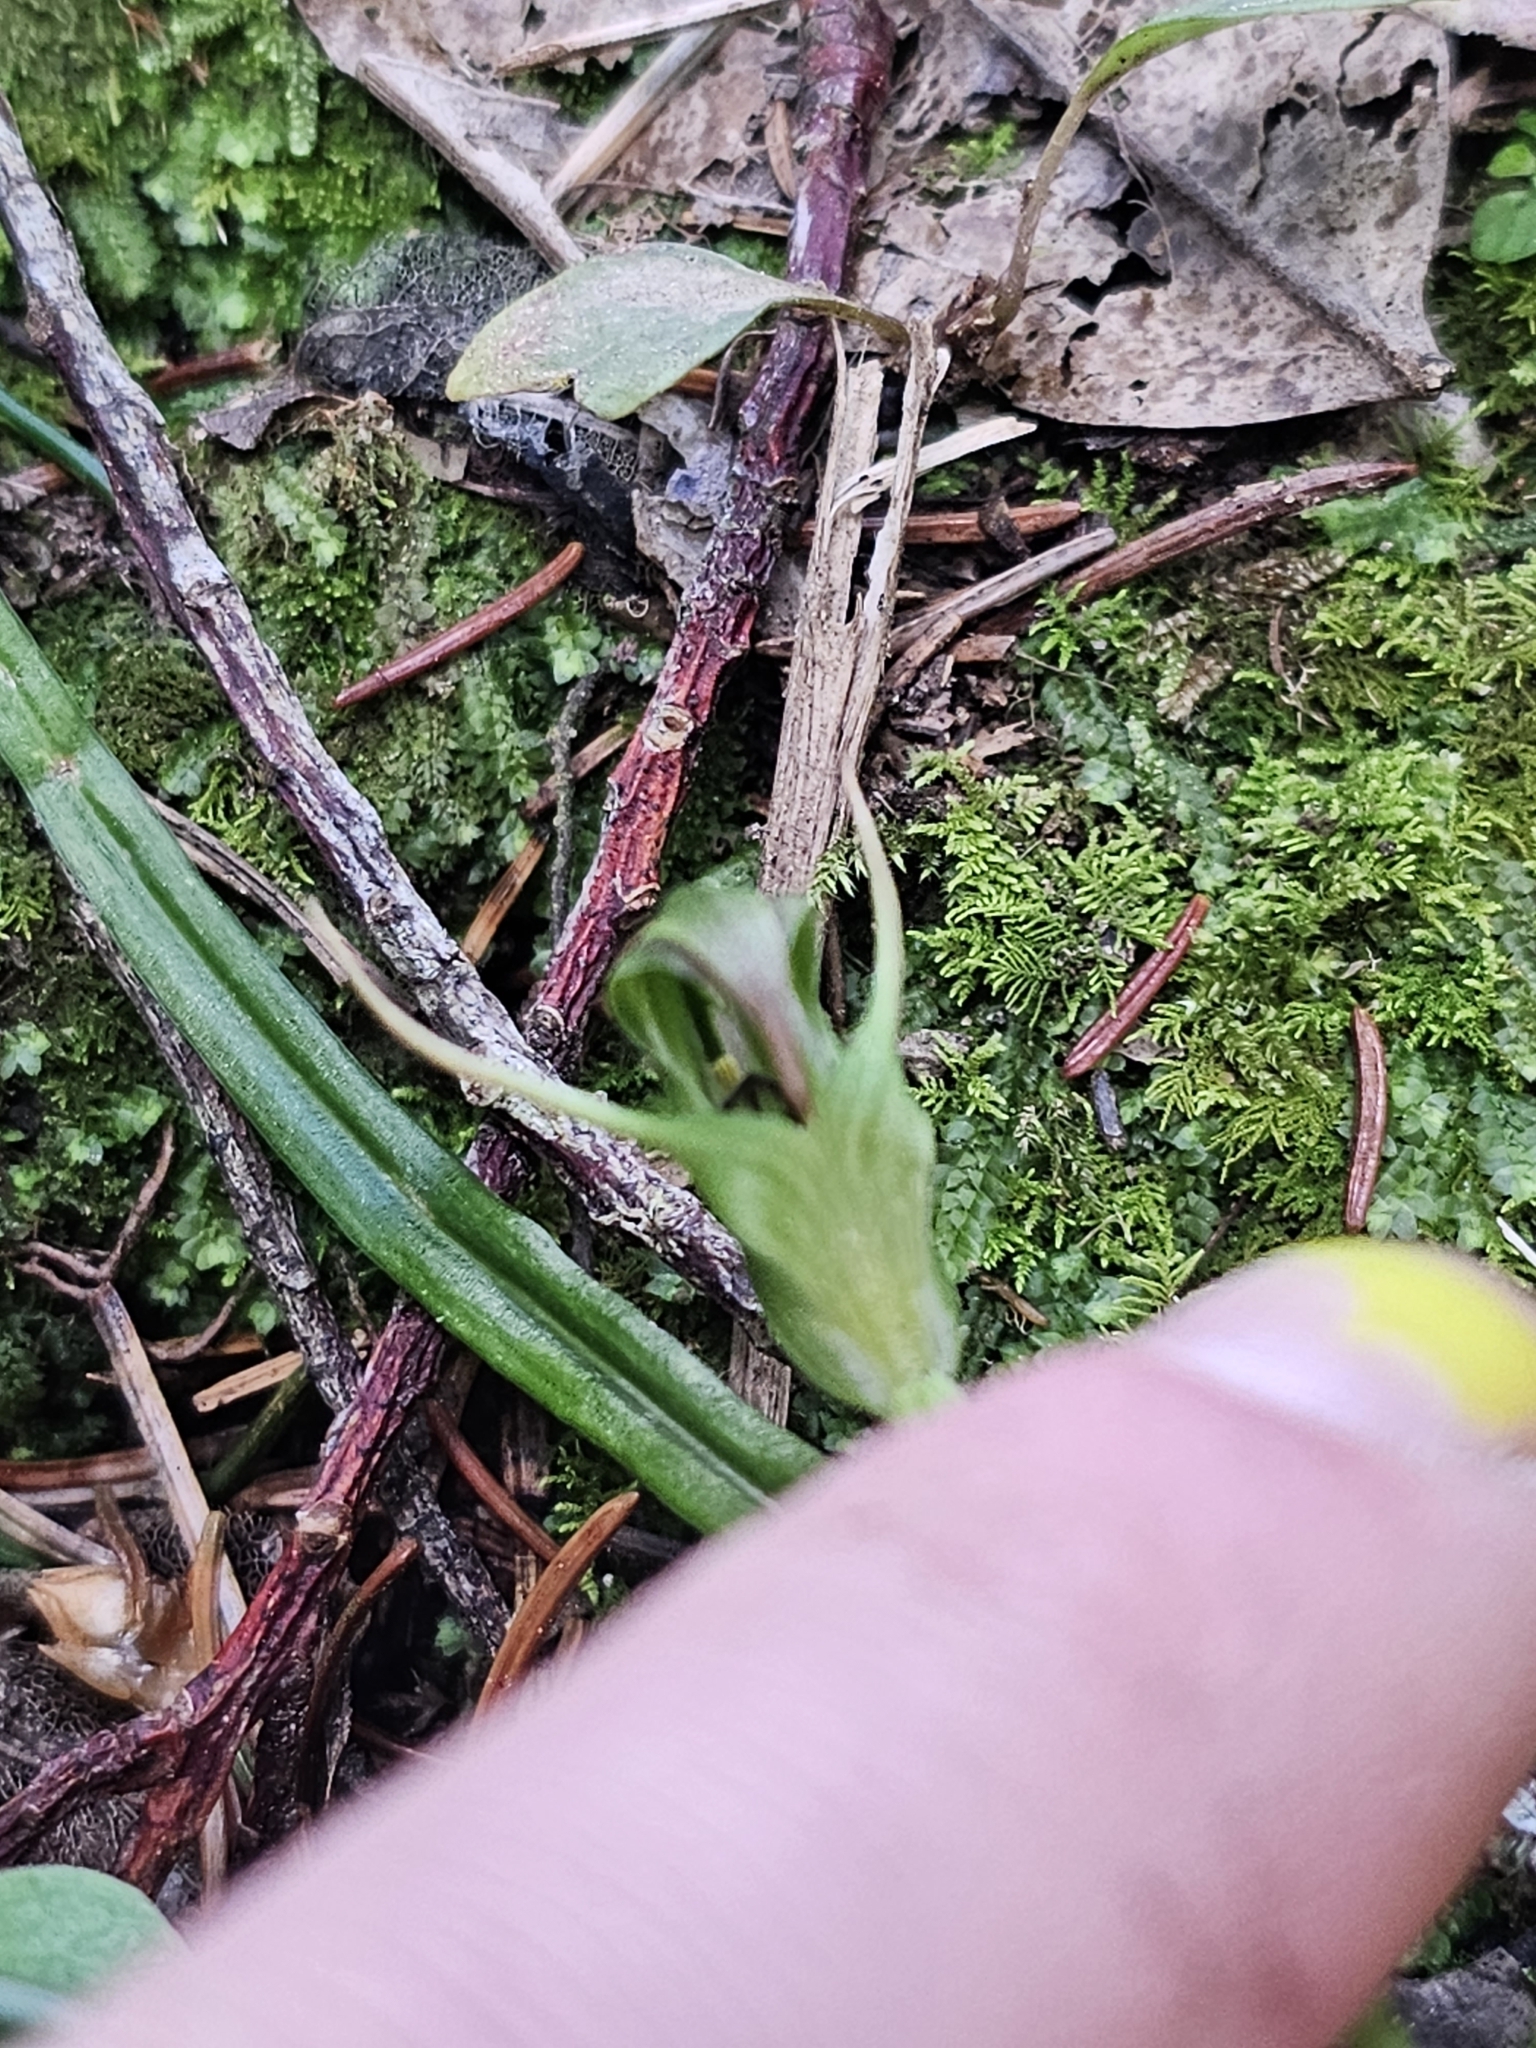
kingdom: Plantae
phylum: Tracheophyta
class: Liliopsida
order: Asparagales
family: Orchidaceae
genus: Pterostylis
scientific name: Pterostylis graminea
